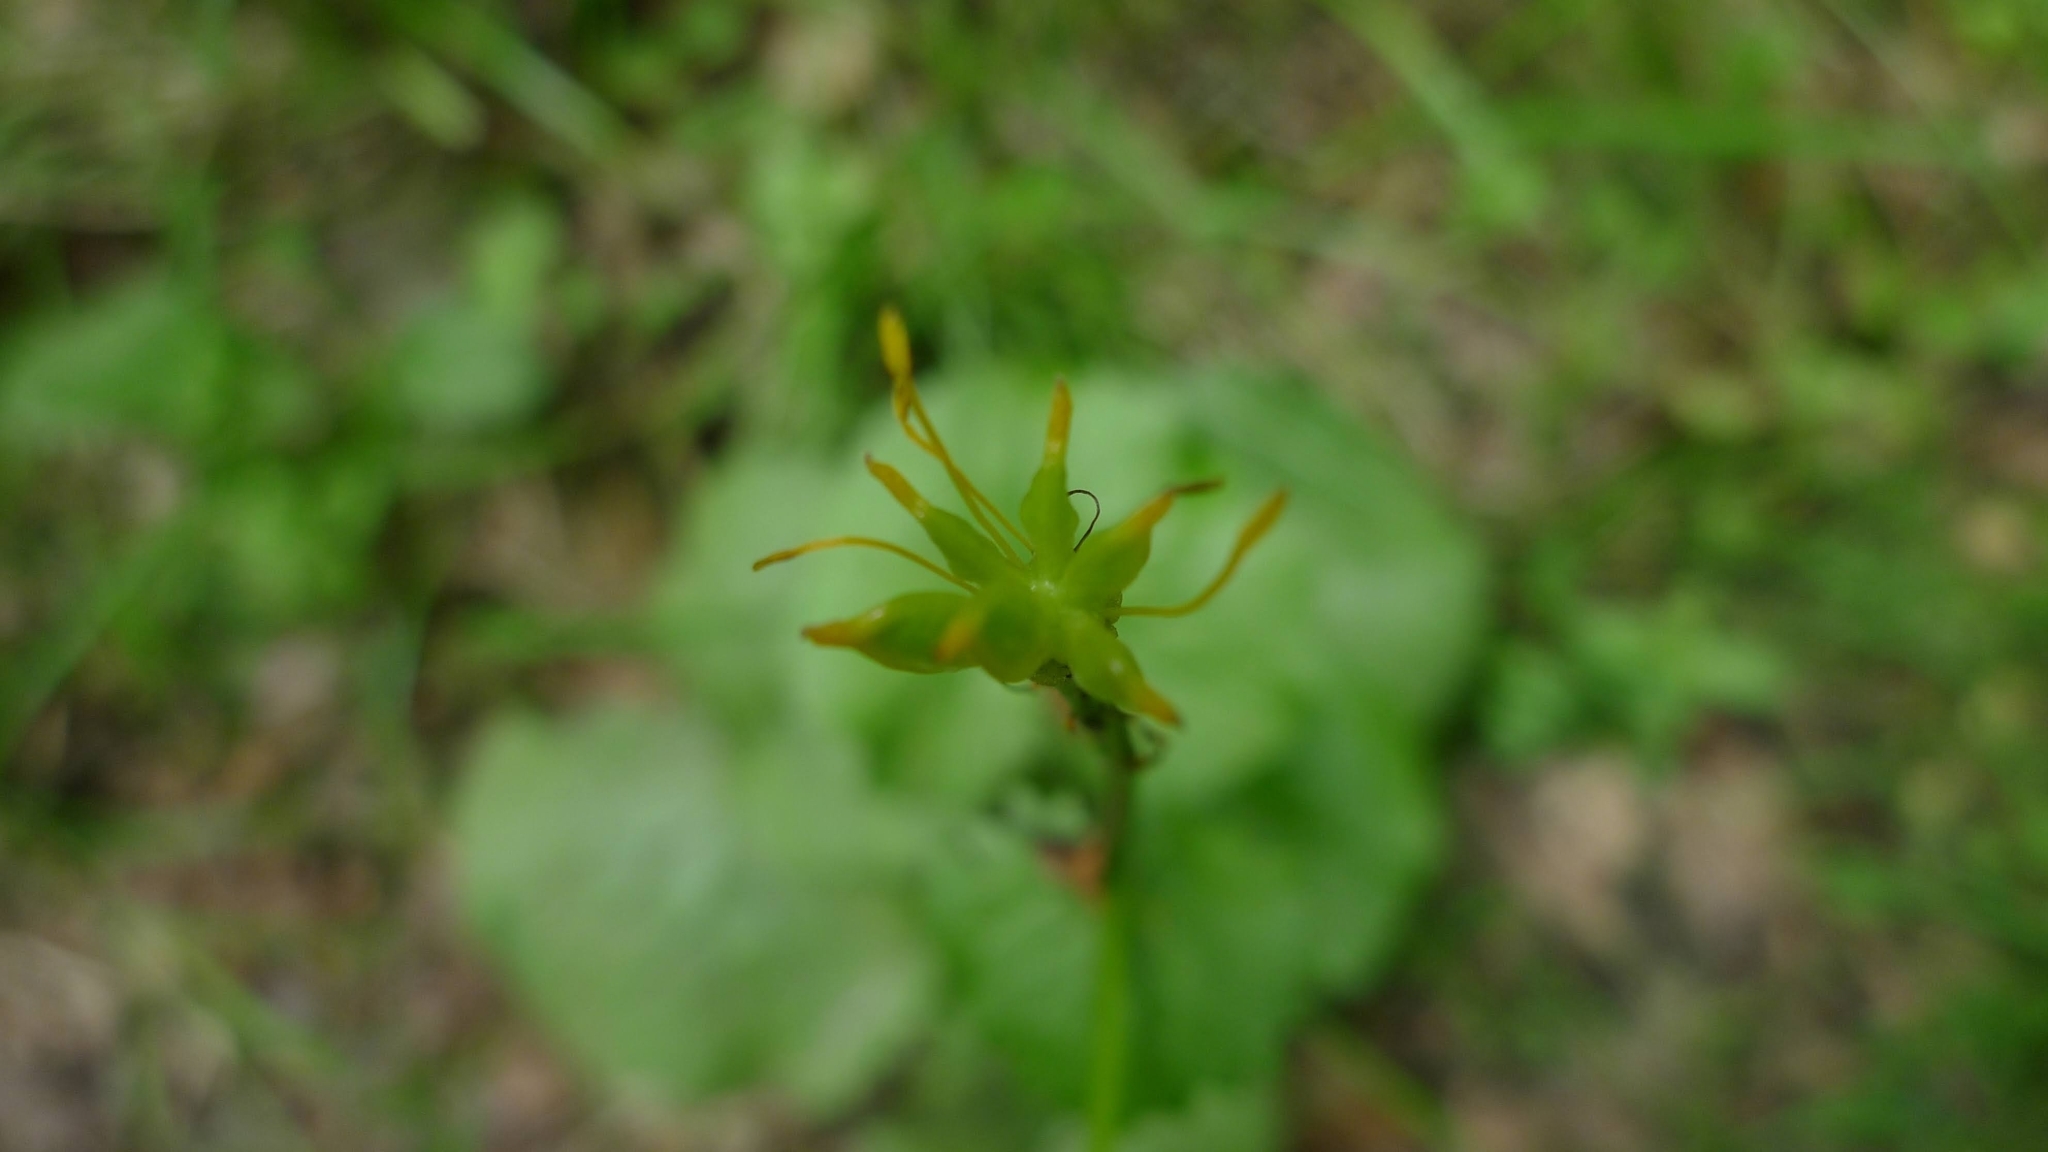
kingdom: Plantae
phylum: Tracheophyta
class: Magnoliopsida
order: Ranunculales
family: Ranunculaceae
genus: Caltha
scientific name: Caltha palustris
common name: Marsh marigold
